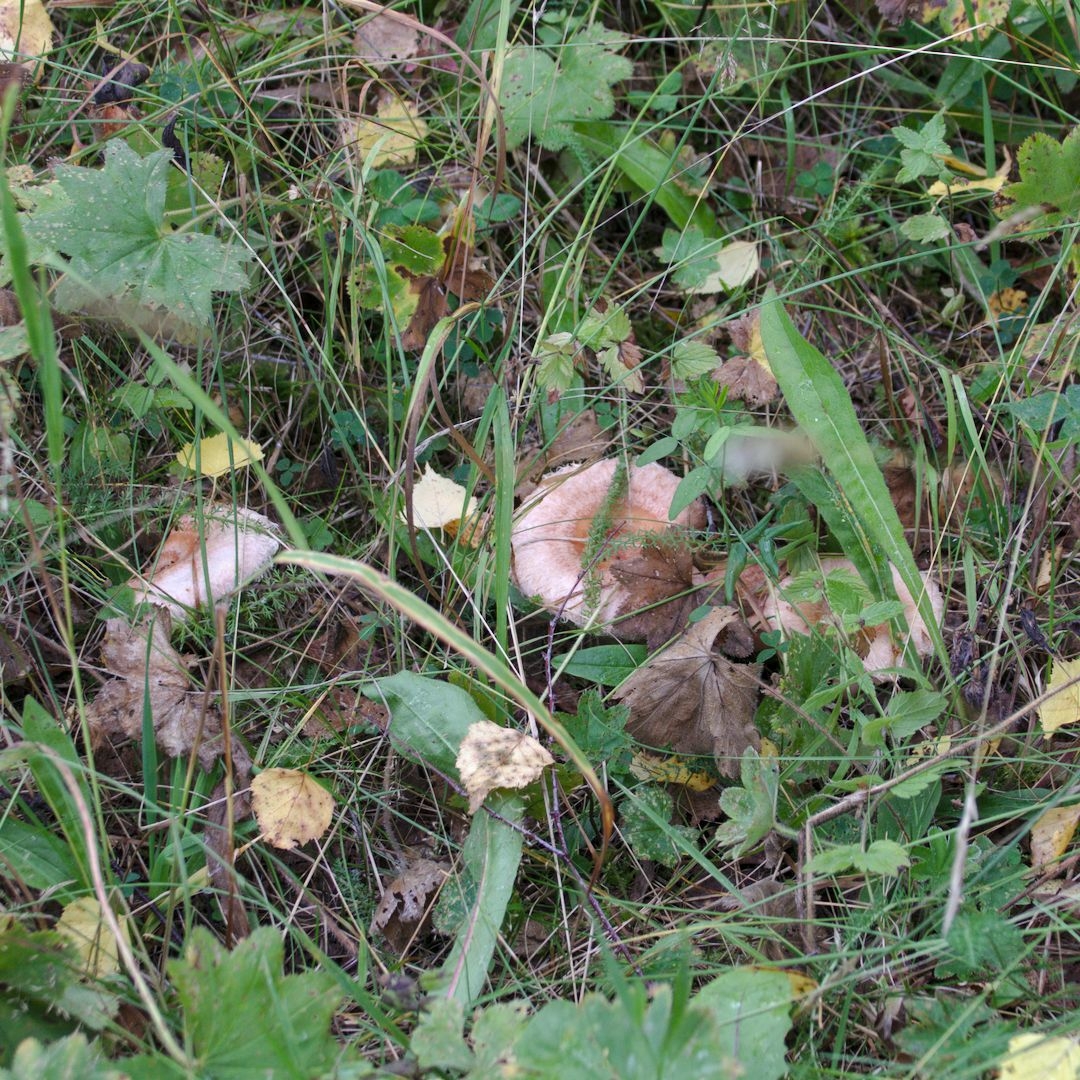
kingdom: Fungi
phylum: Basidiomycota
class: Agaricomycetes
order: Russulales
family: Russulaceae
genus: Lactarius
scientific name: Lactarius torminosus
